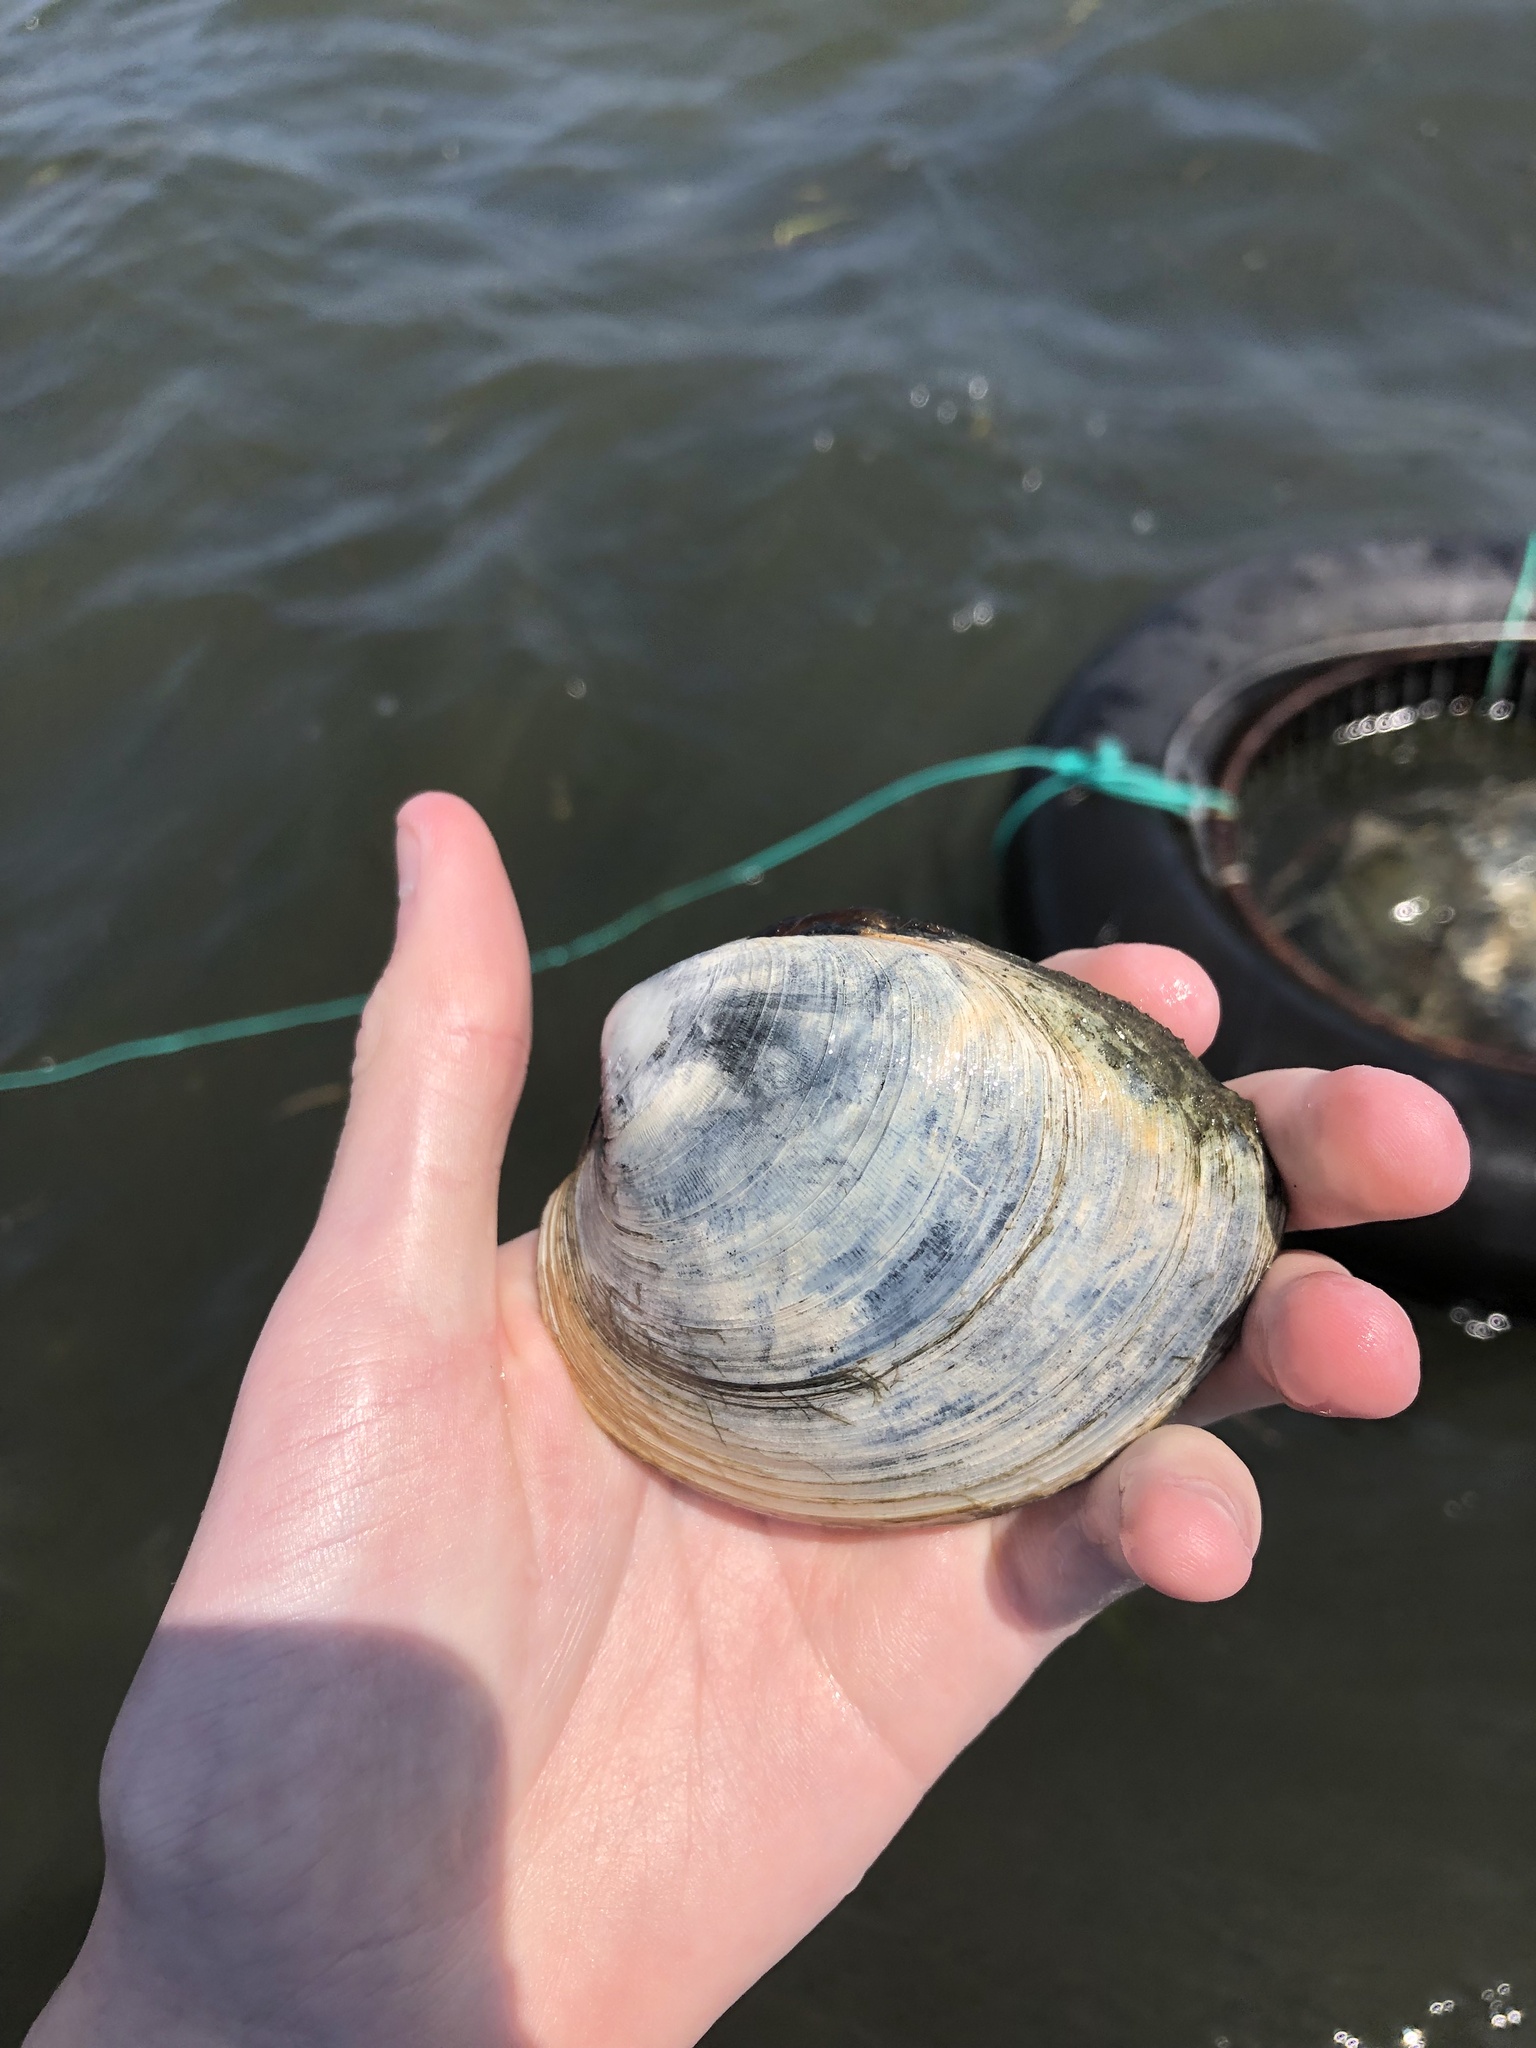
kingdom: Animalia
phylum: Mollusca
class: Bivalvia
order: Venerida
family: Veneridae
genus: Mercenaria
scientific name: Mercenaria mercenaria
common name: American hard-shelled clam
